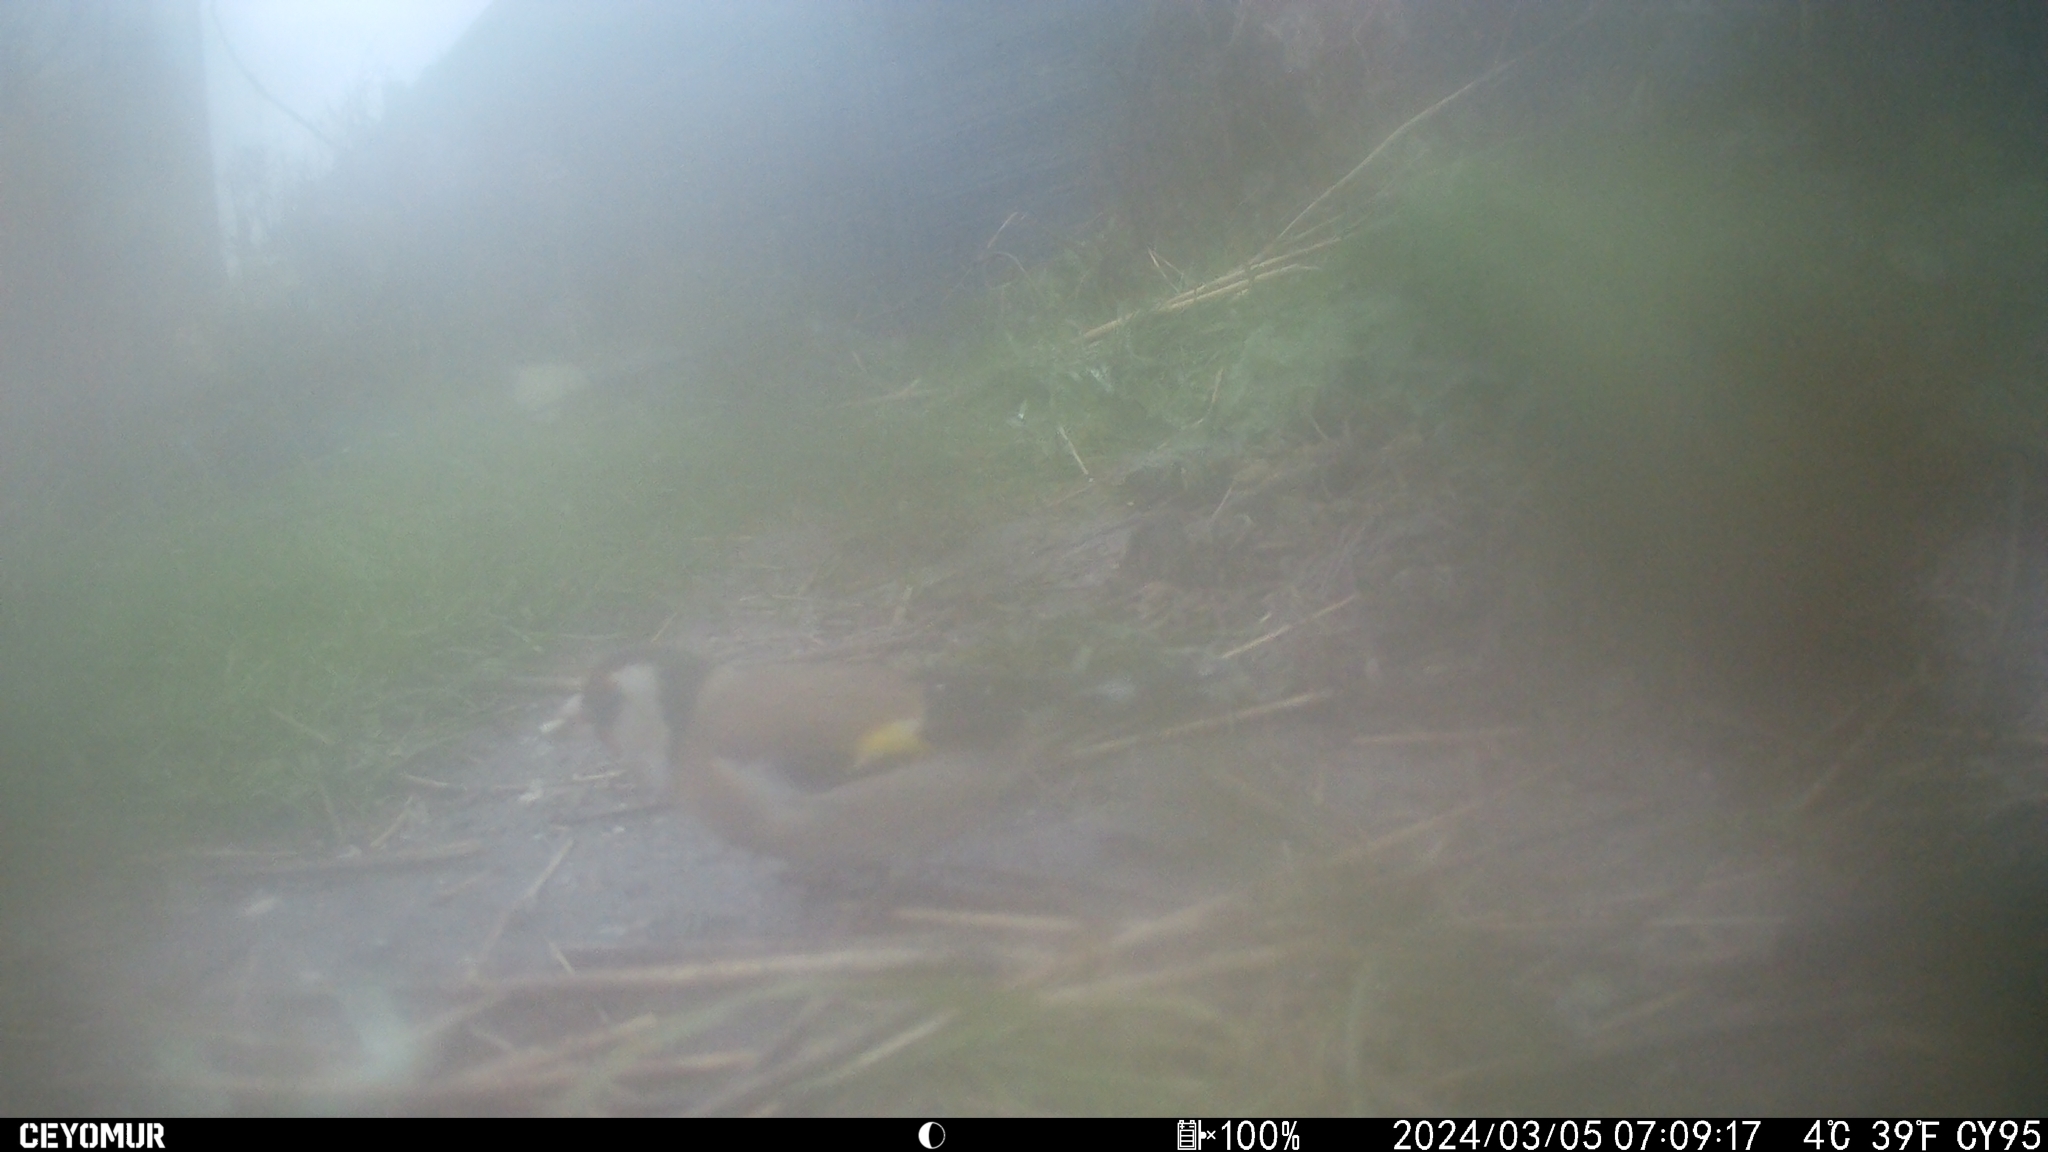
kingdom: Animalia
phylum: Chordata
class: Aves
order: Passeriformes
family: Fringillidae
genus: Carduelis
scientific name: Carduelis carduelis
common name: European goldfinch
